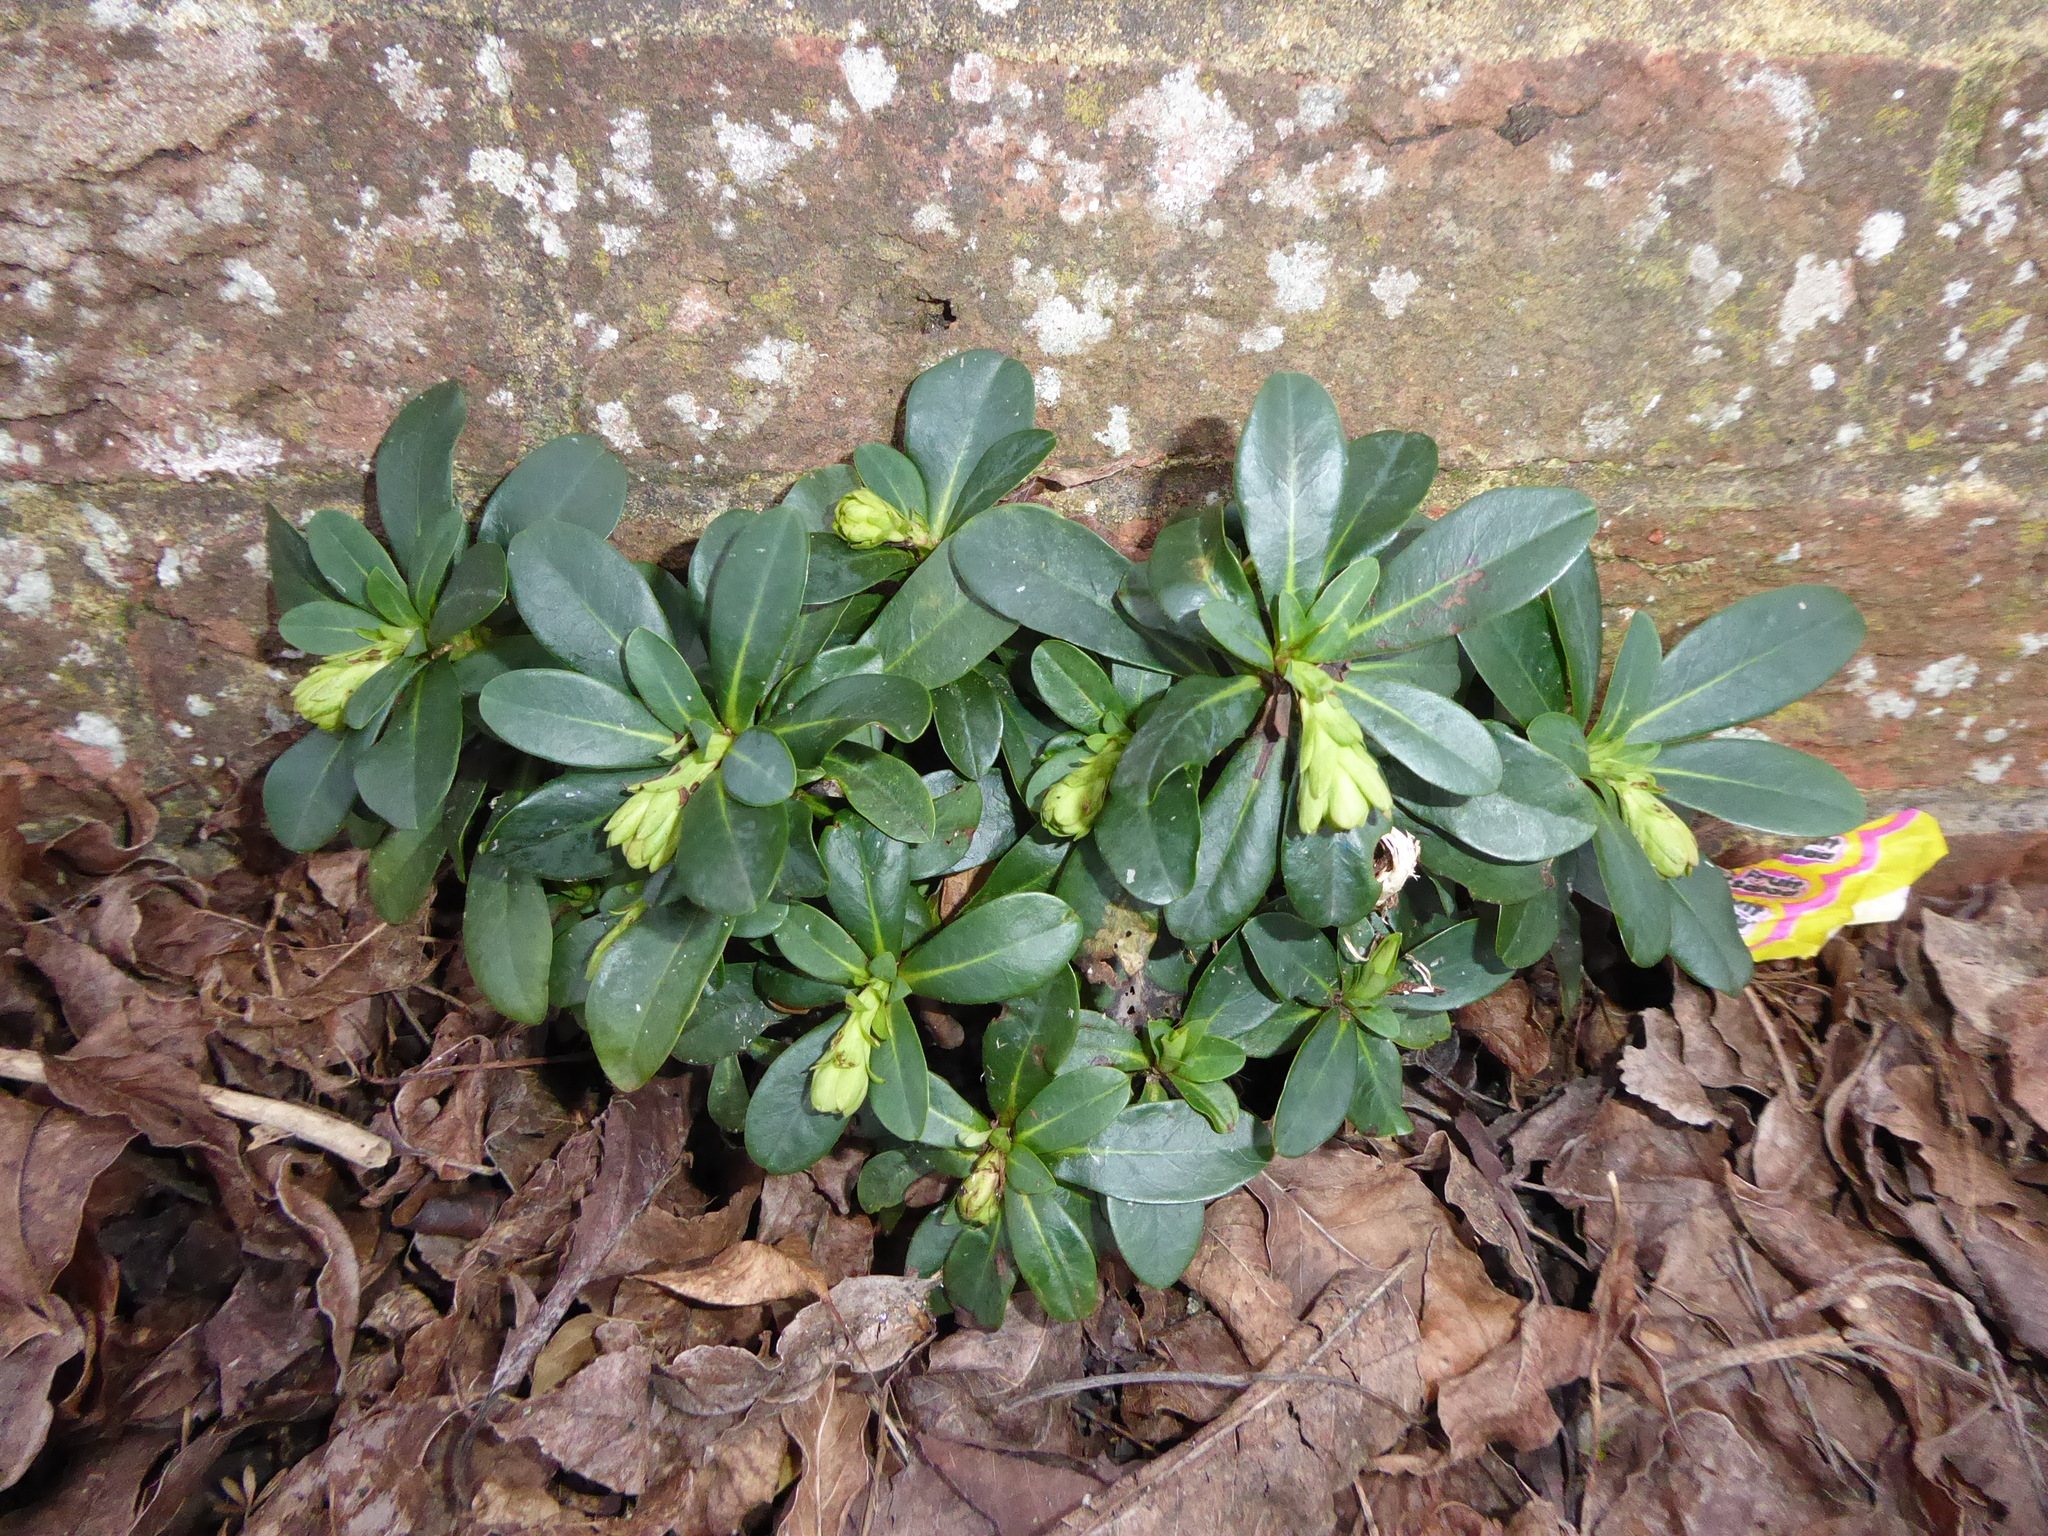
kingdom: Plantae
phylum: Tracheophyta
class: Magnoliopsida
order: Malpighiales
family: Euphorbiaceae
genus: Euphorbia
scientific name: Euphorbia amygdaloides
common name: Wood spurge
